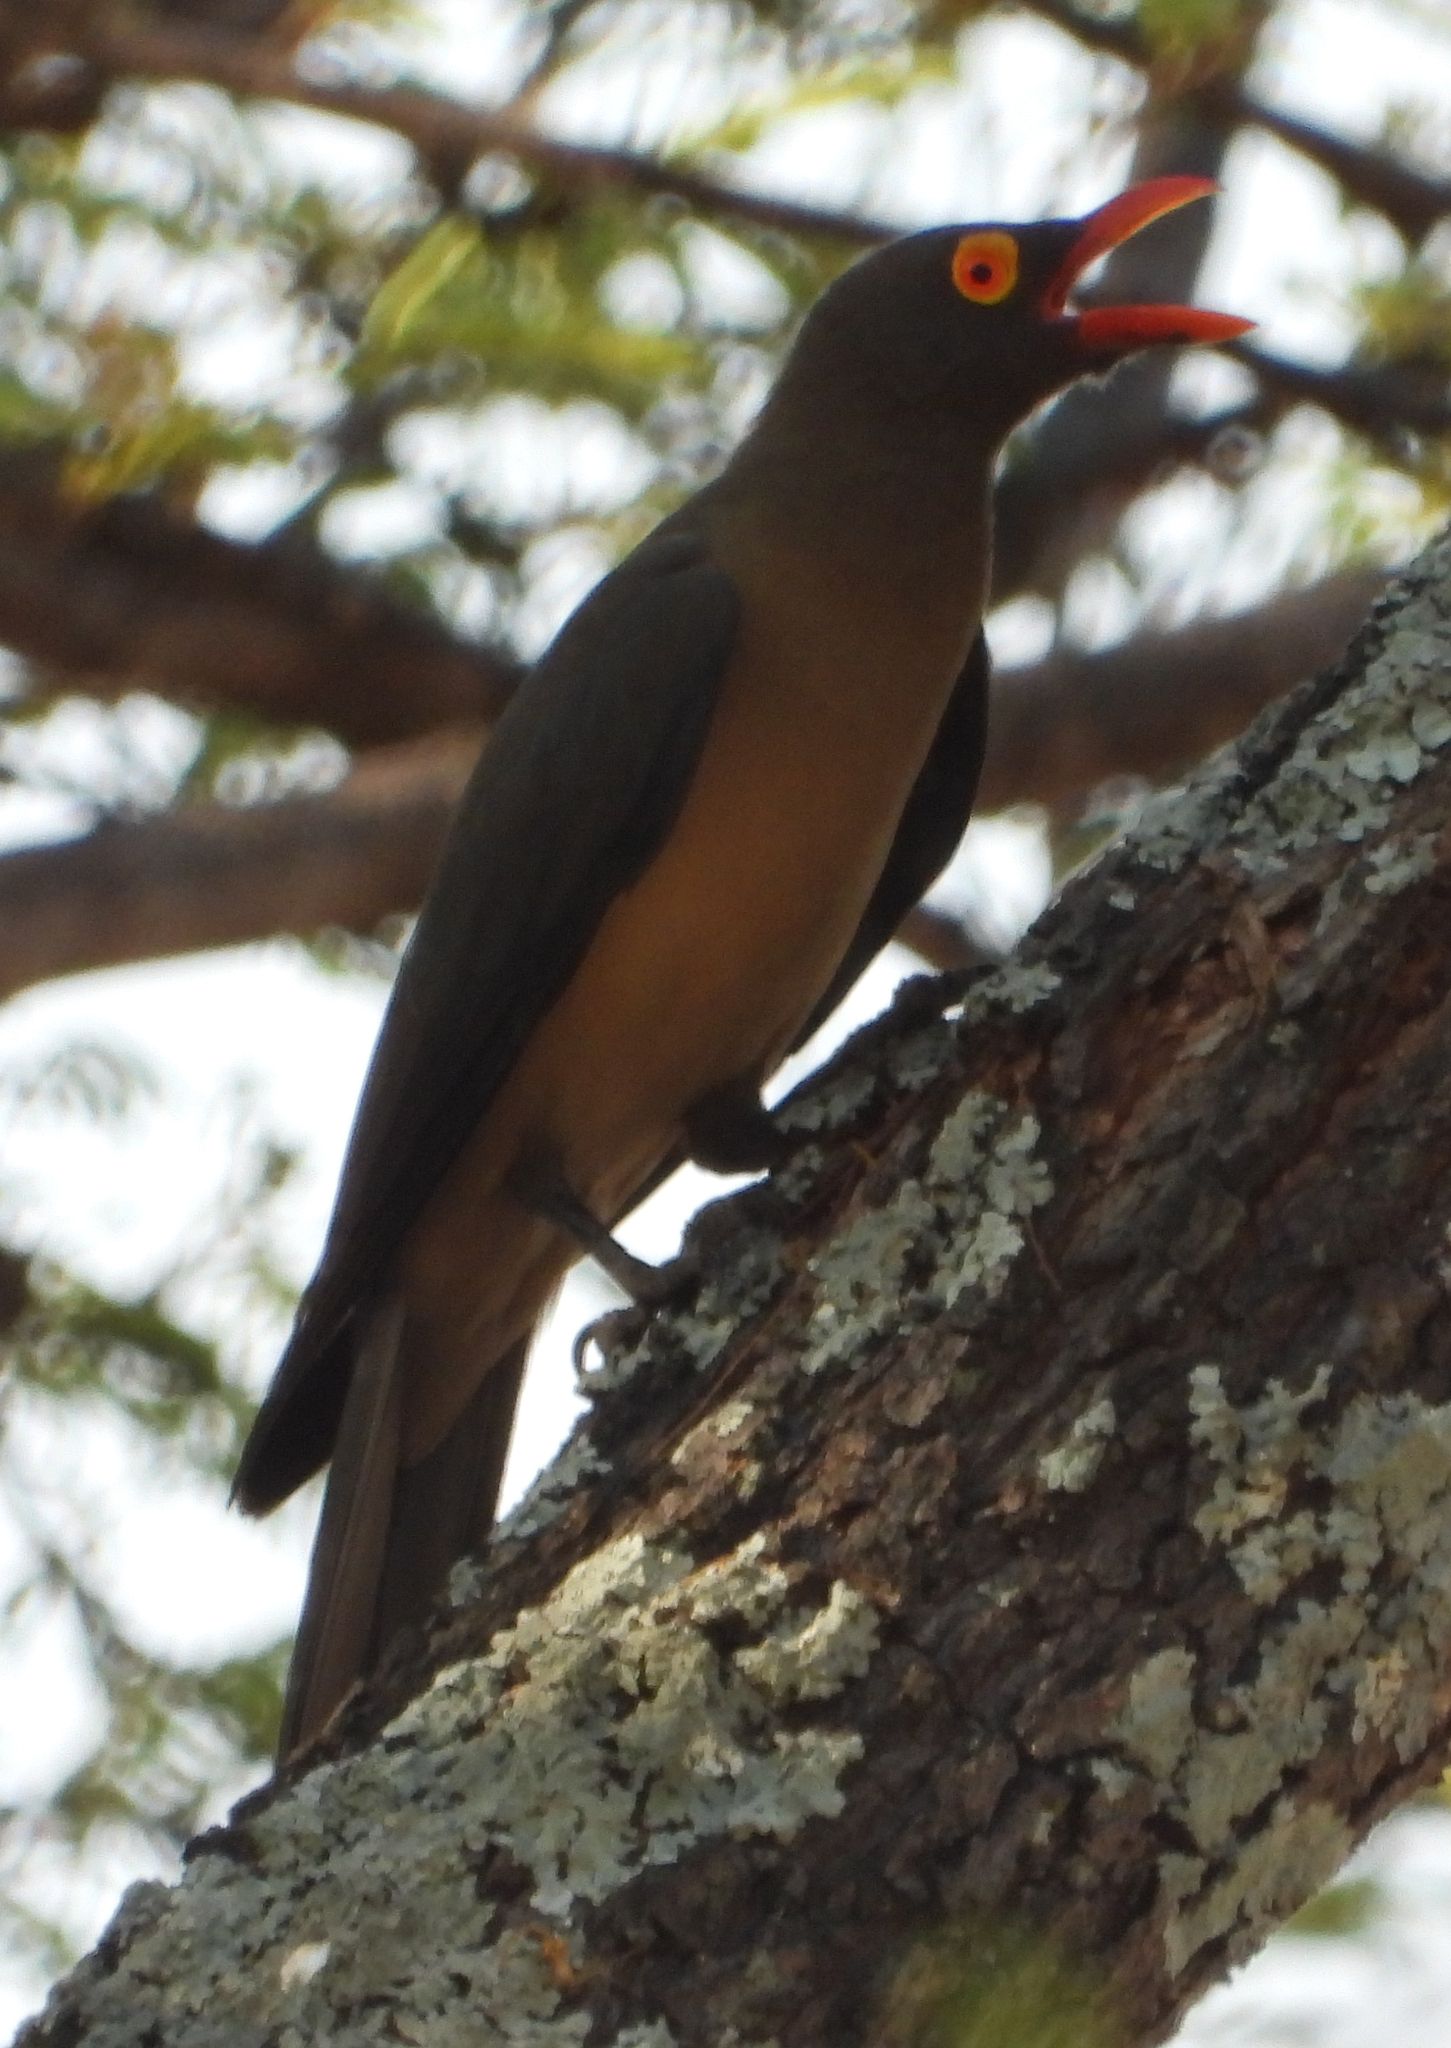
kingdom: Animalia
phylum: Chordata
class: Aves
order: Passeriformes
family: Buphagidae
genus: Buphagus
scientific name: Buphagus erythrorhynchus
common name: Red-billed oxpecker
